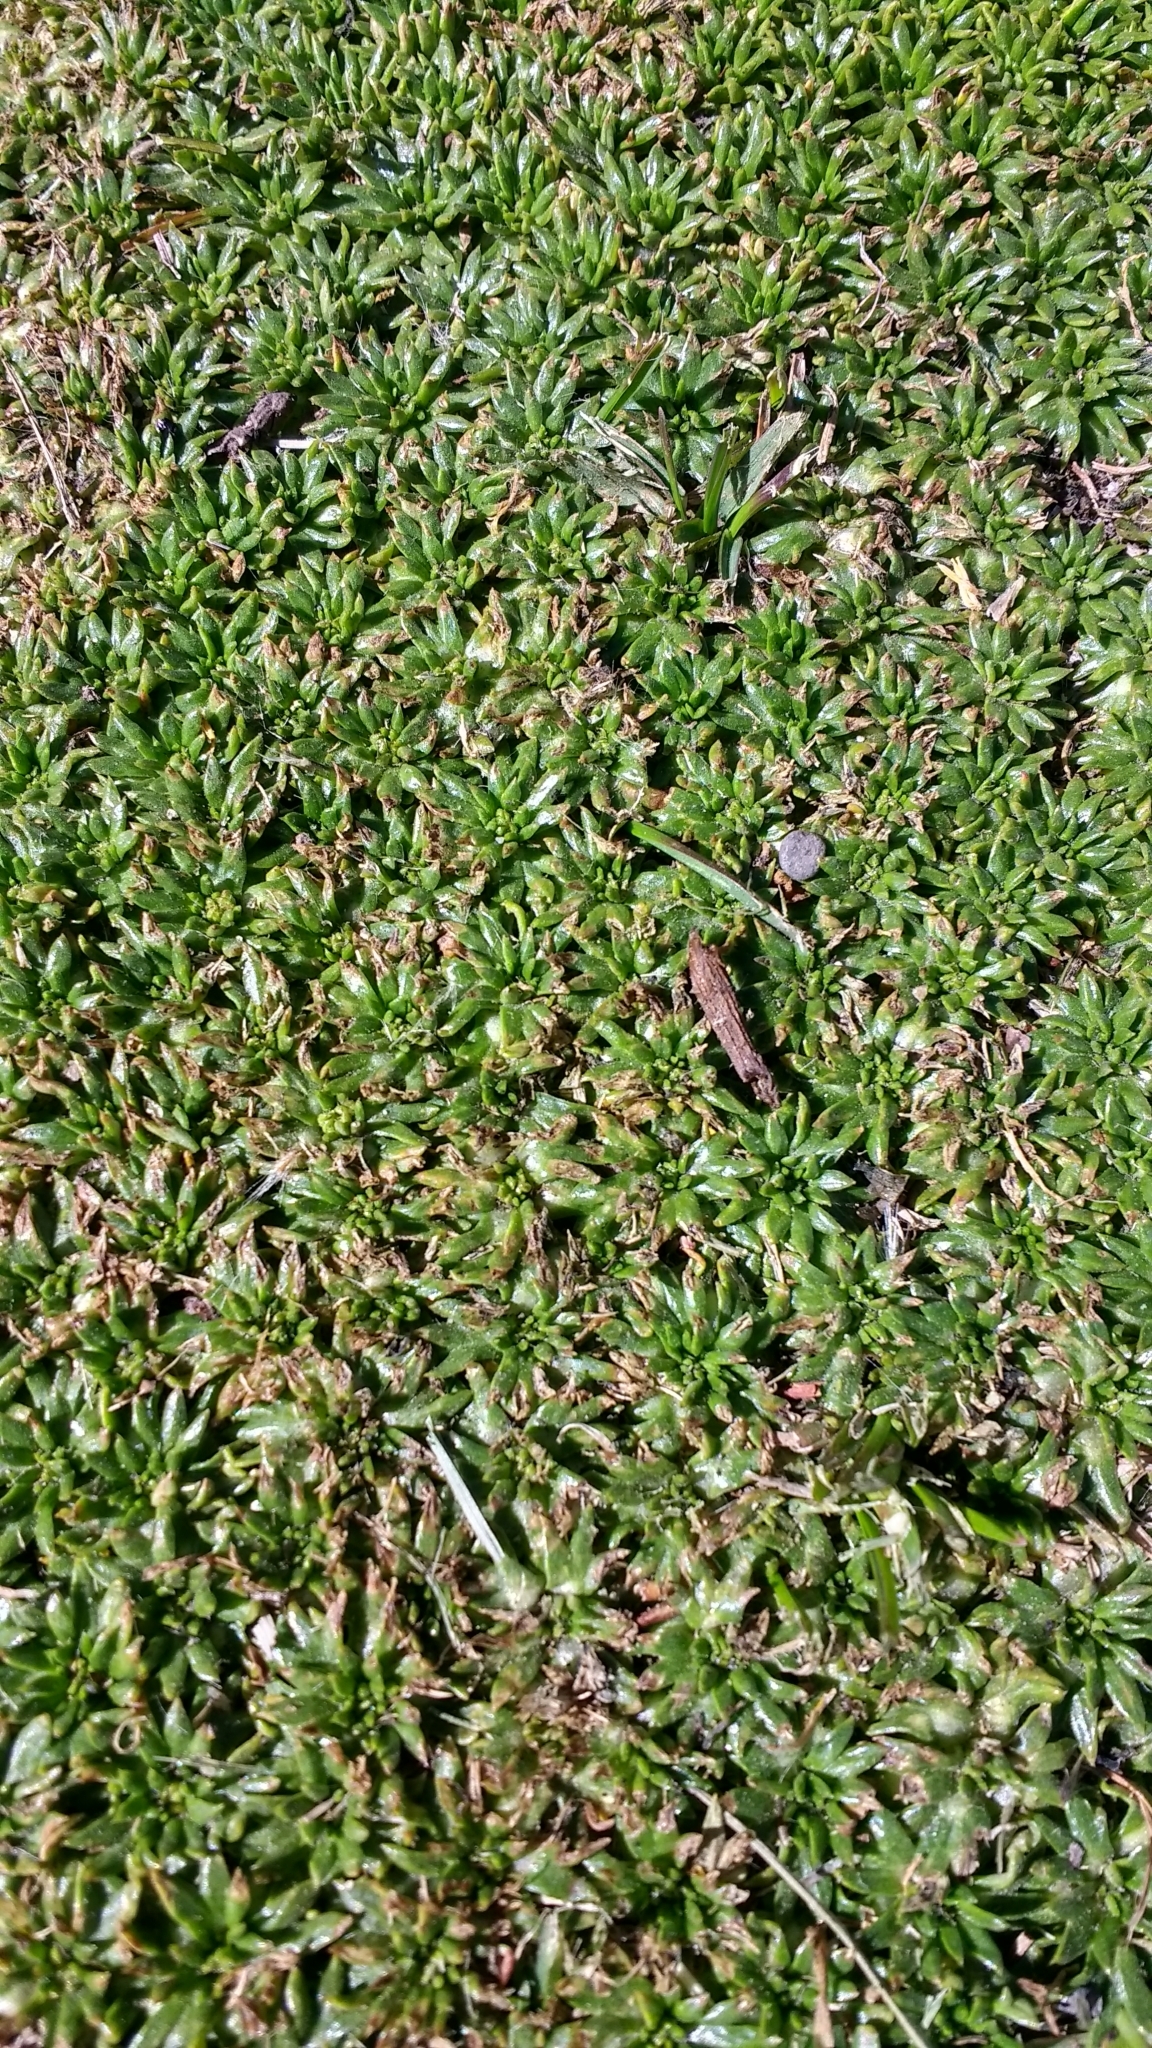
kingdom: Plantae
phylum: Tracheophyta
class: Magnoliopsida
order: Apiales
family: Apiaceae
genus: Azorella
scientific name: Azorella trifurcata
